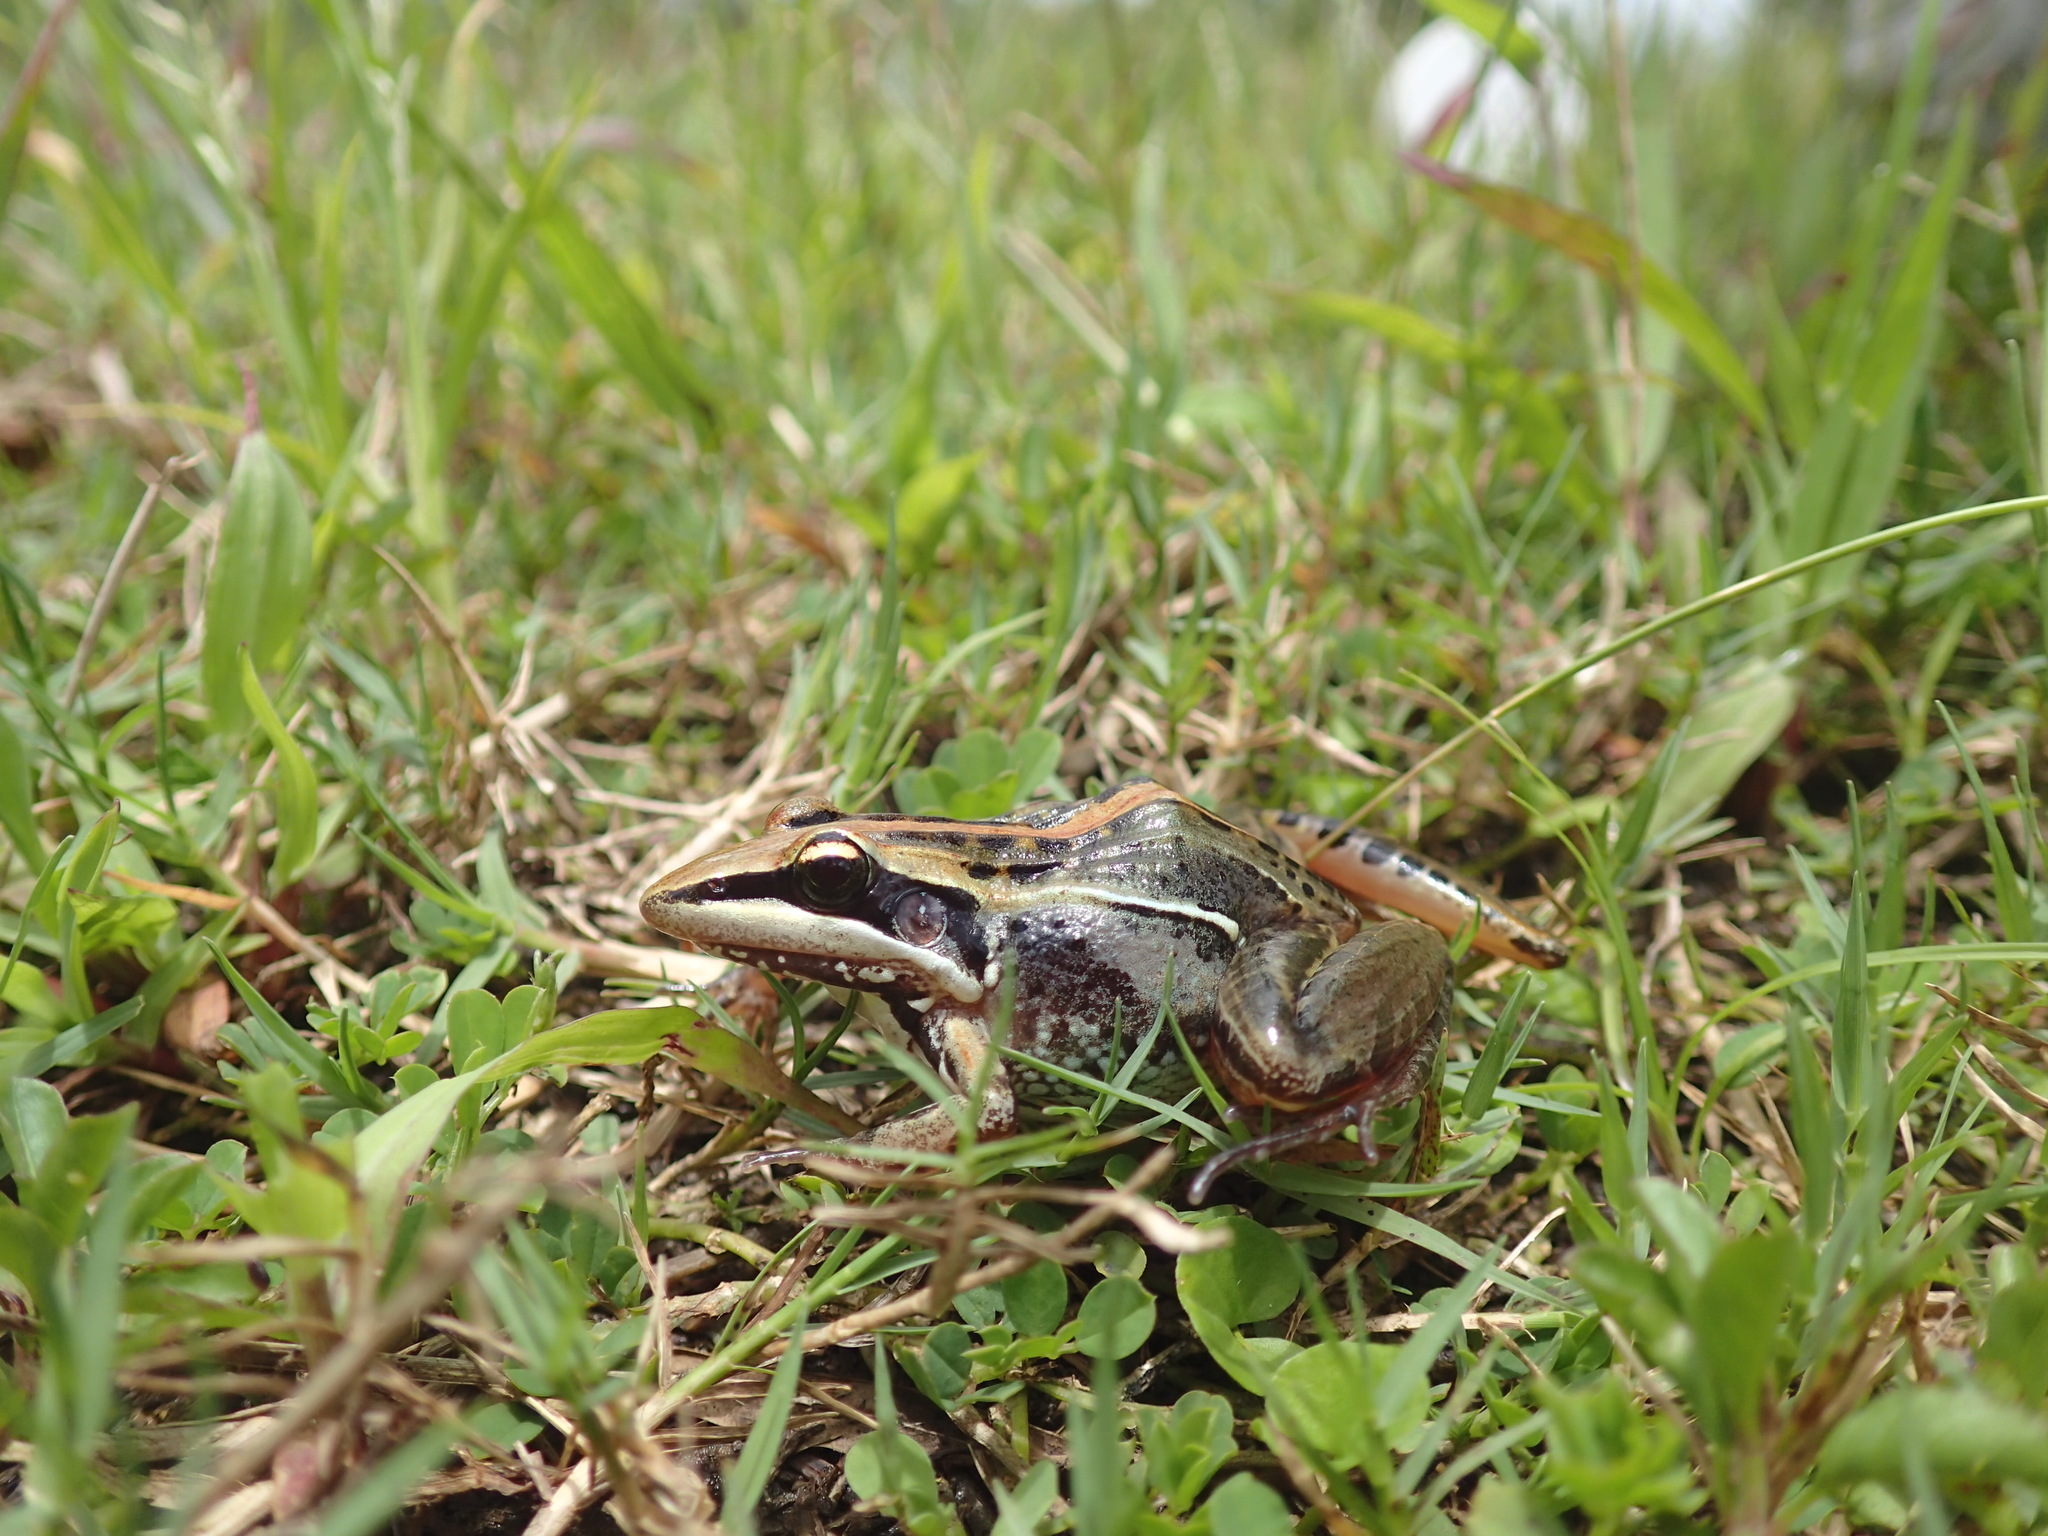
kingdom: Animalia
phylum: Chordata
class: Amphibia
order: Anura
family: Ptychadenidae
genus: Ptychadena
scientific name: Ptychadena guibei
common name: Guibe's grassland frog
